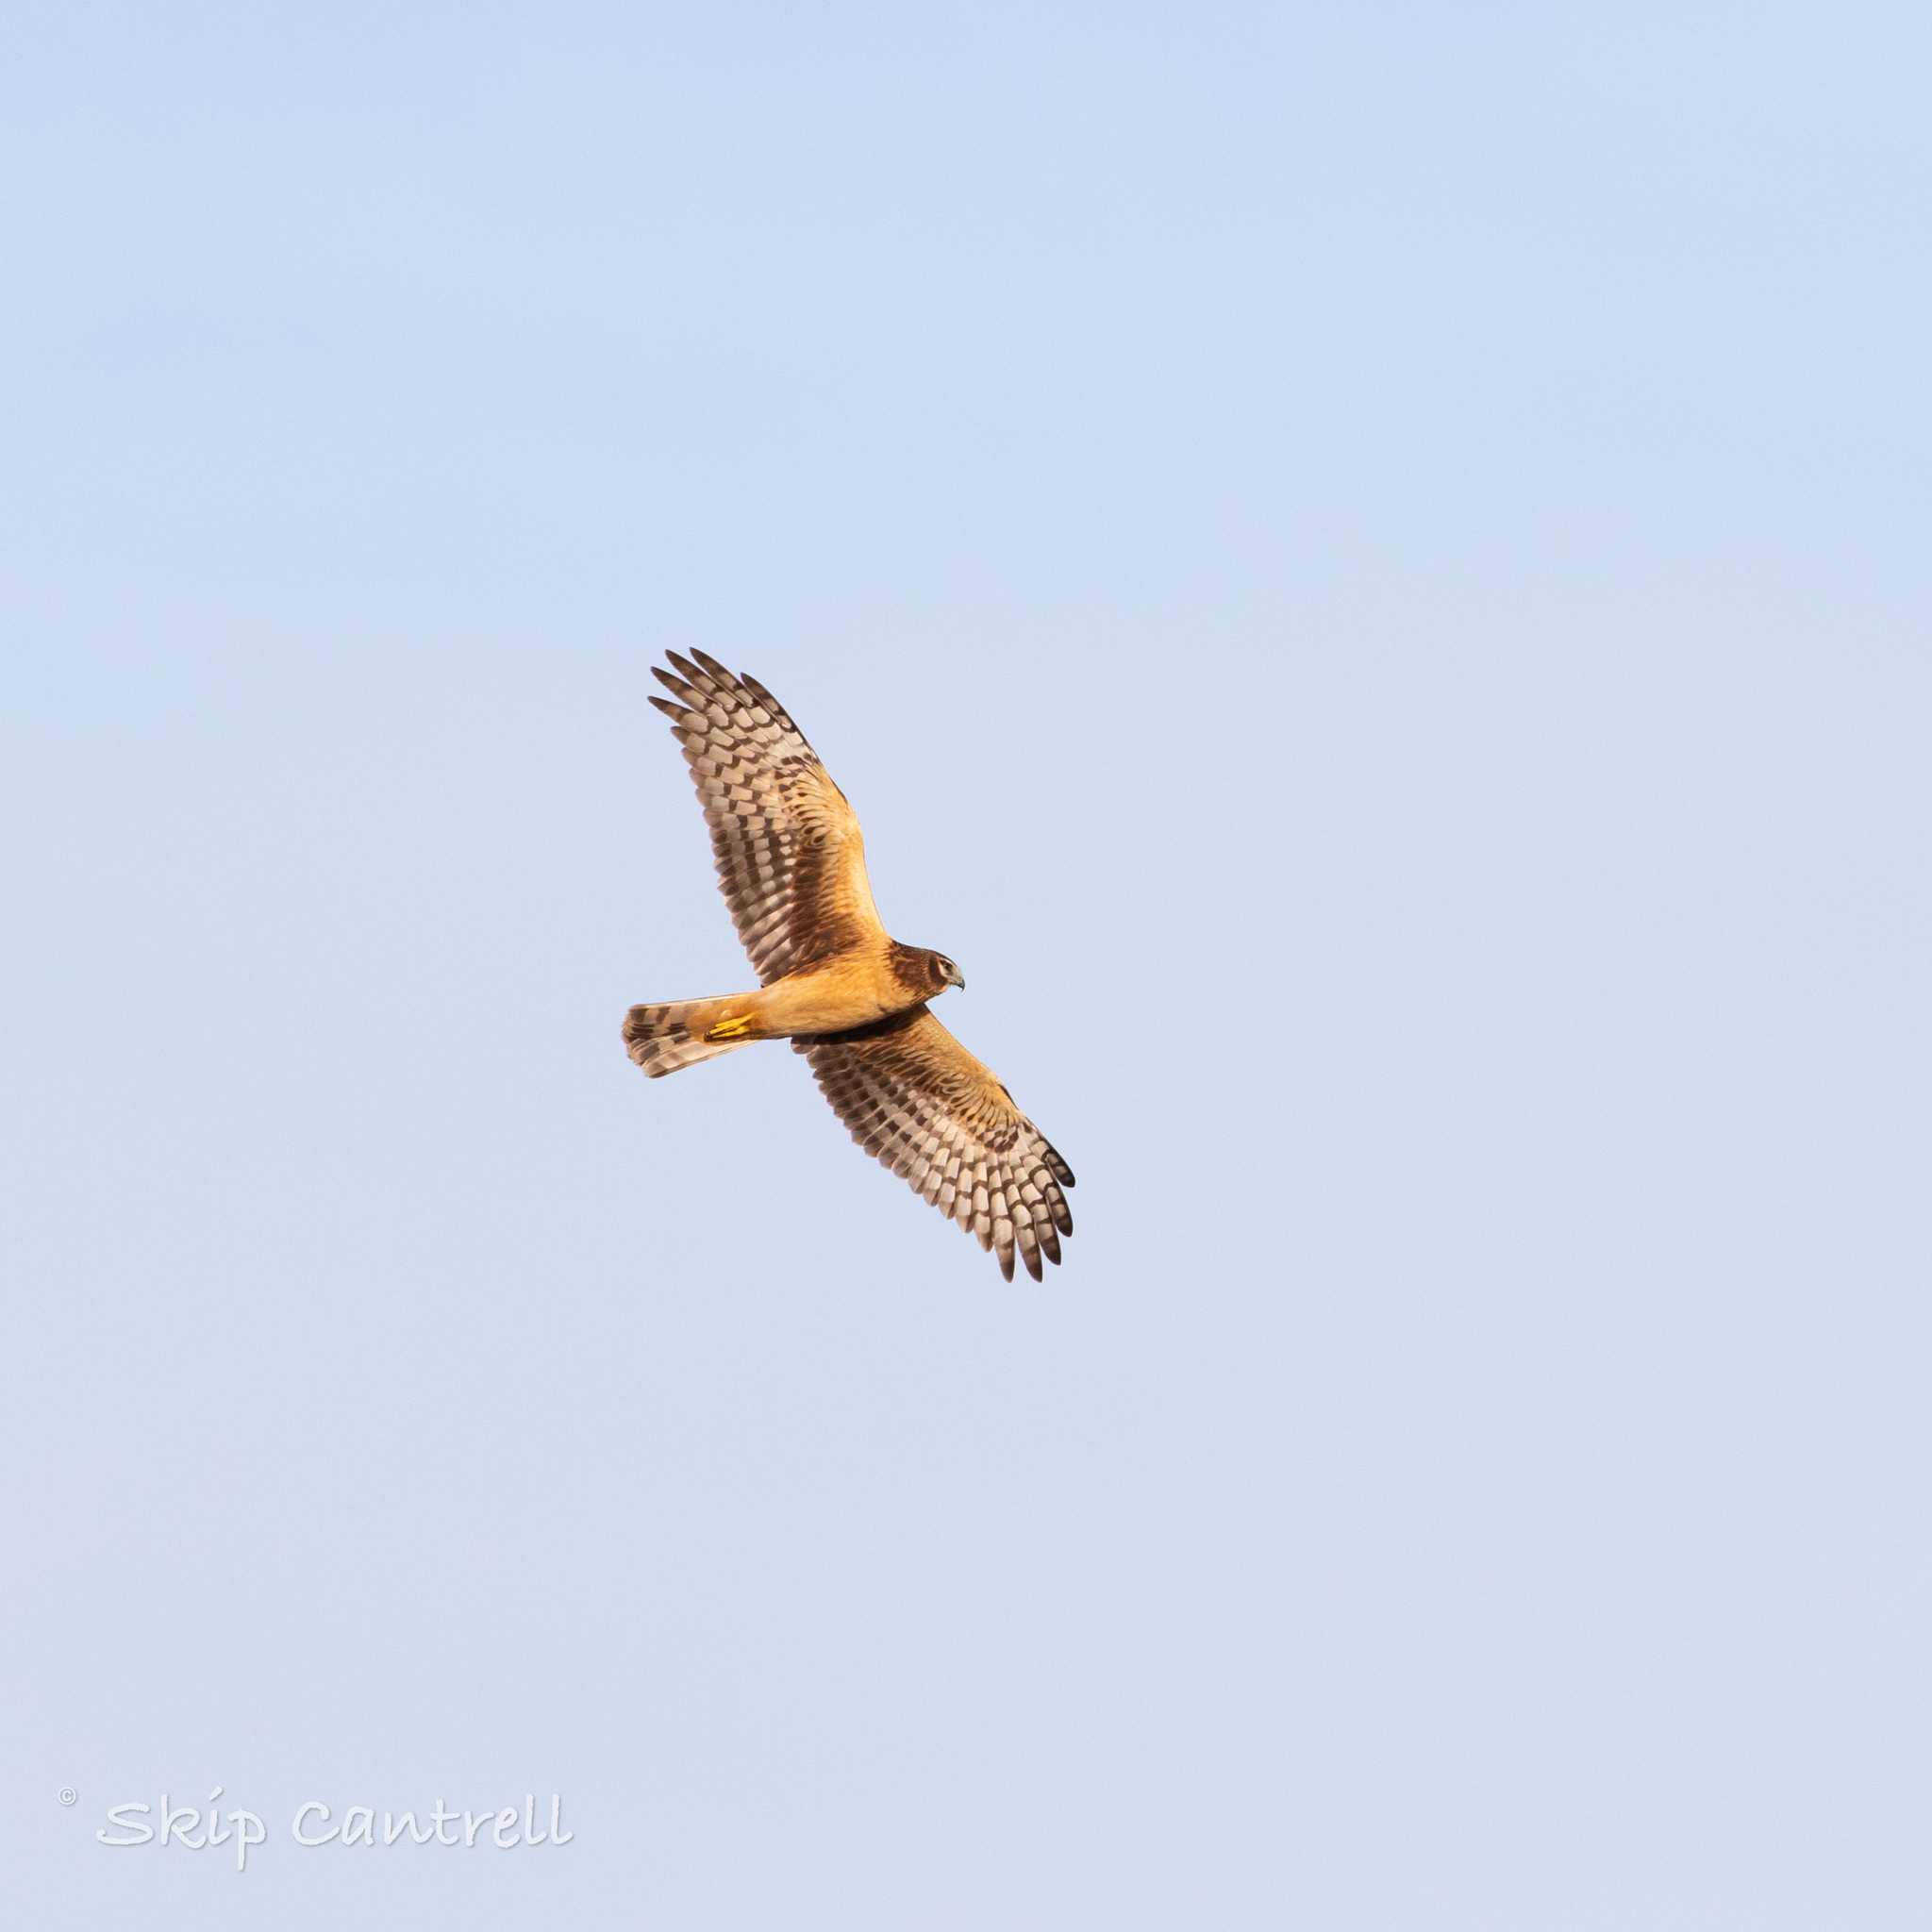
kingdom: Animalia
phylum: Chordata
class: Aves
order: Accipitriformes
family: Accipitridae
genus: Circus
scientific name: Circus cyaneus
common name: Hen harrier
